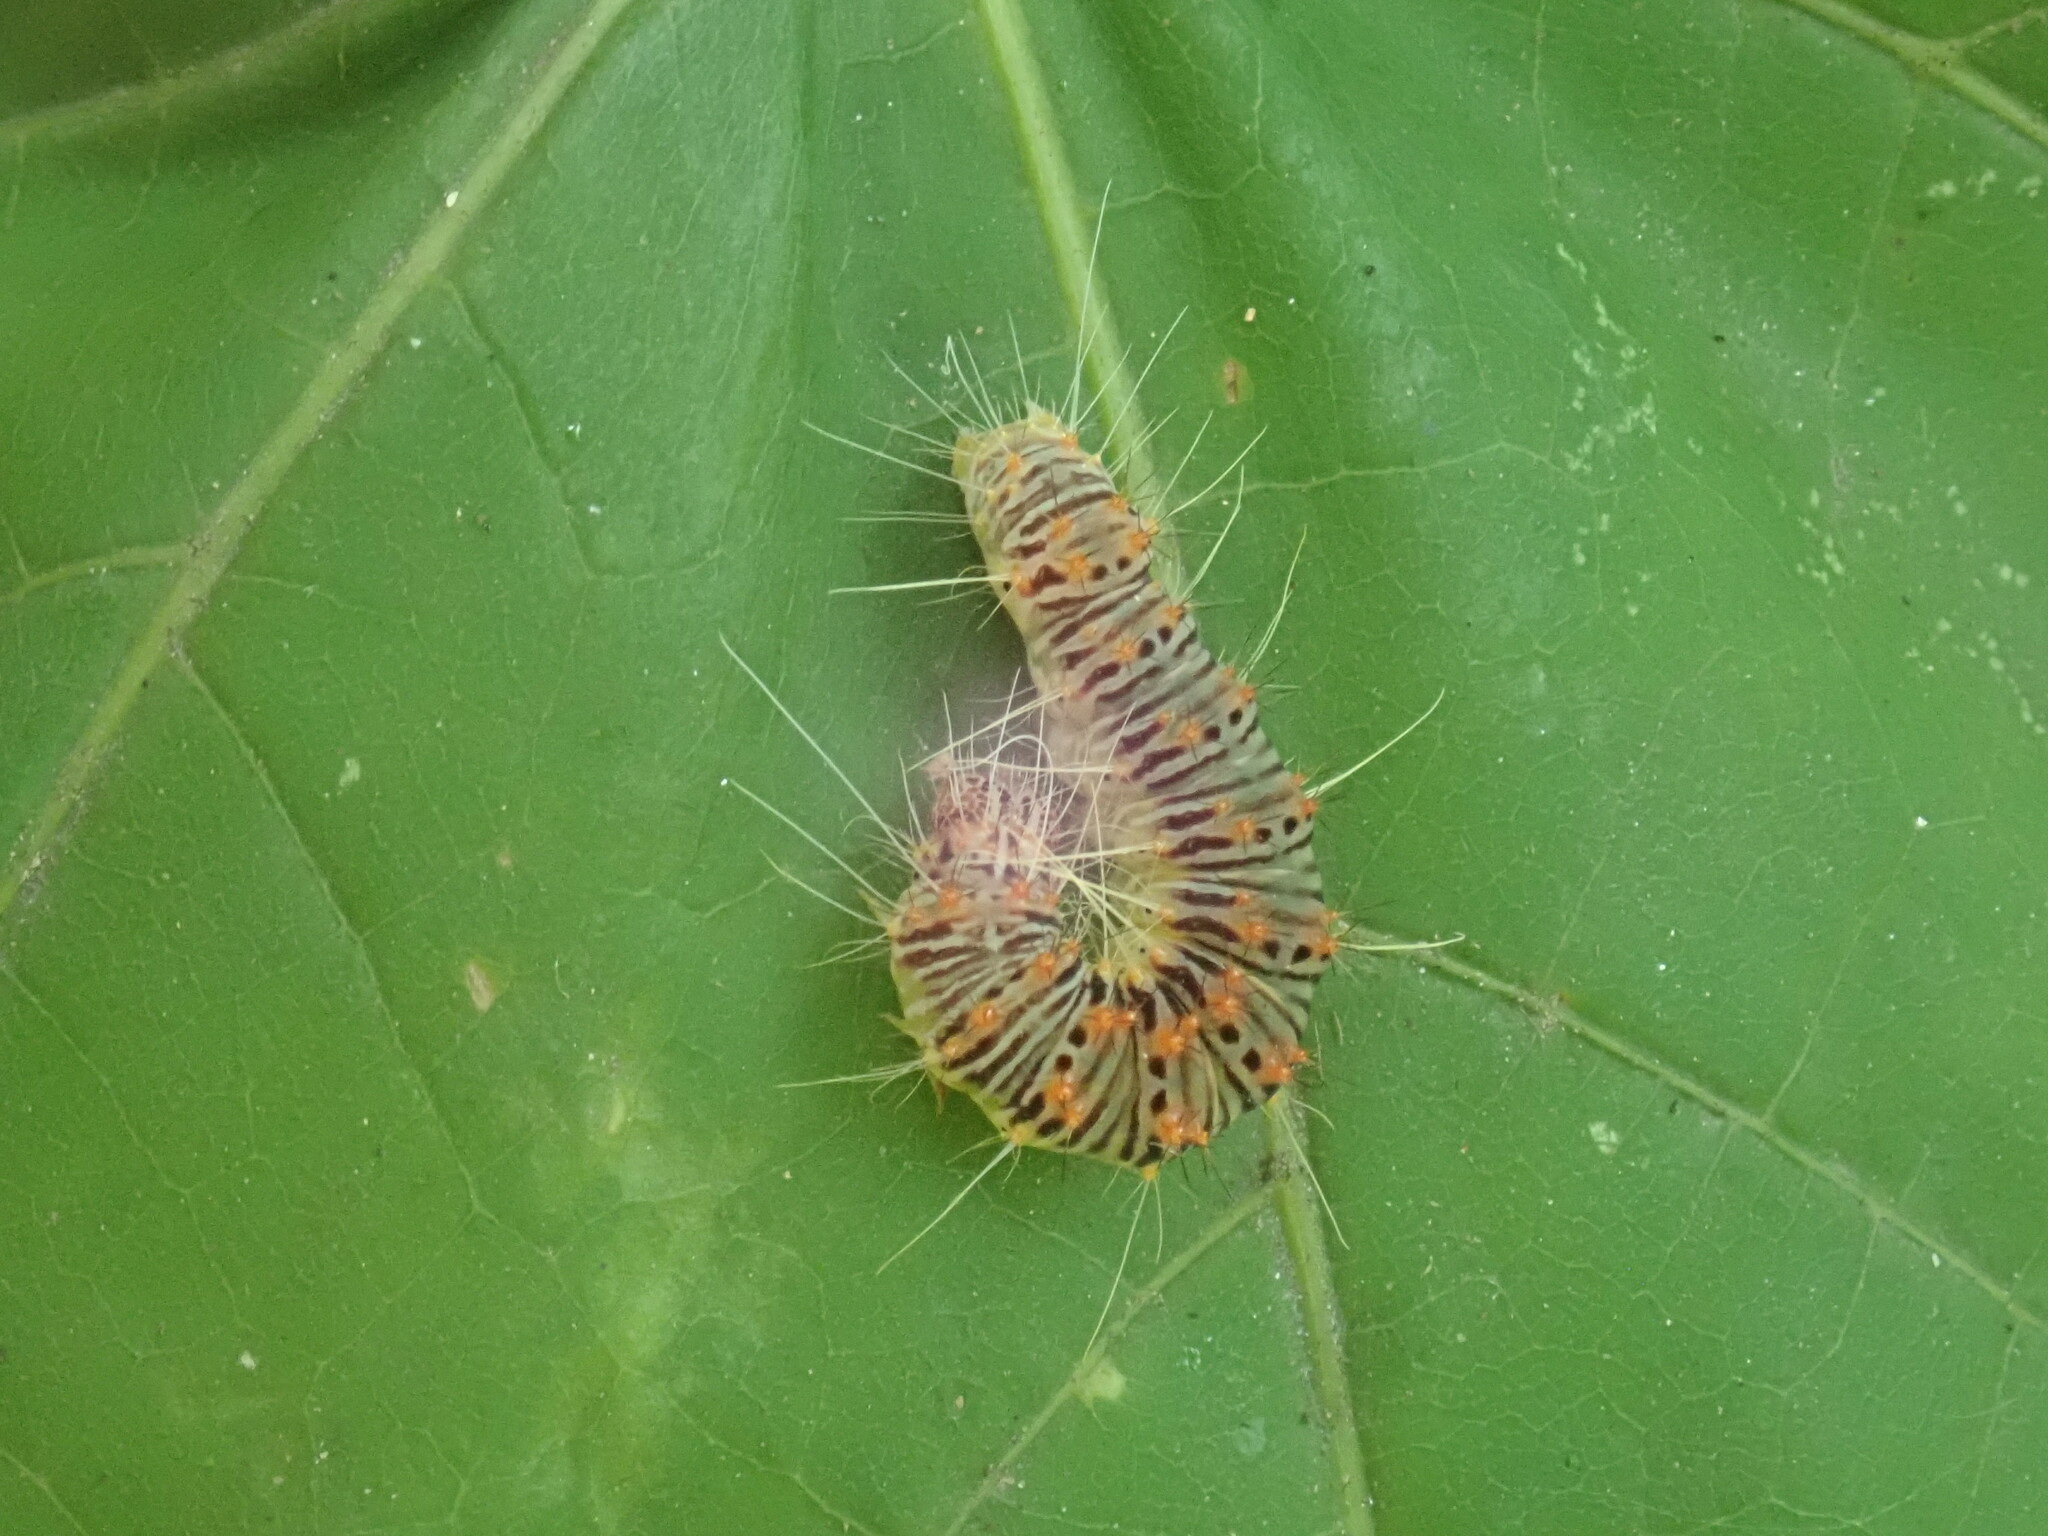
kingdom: Animalia
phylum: Arthropoda
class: Insecta
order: Lepidoptera
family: Noctuidae
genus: Acronicta
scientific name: Acronicta retardata
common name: Maple dagger
